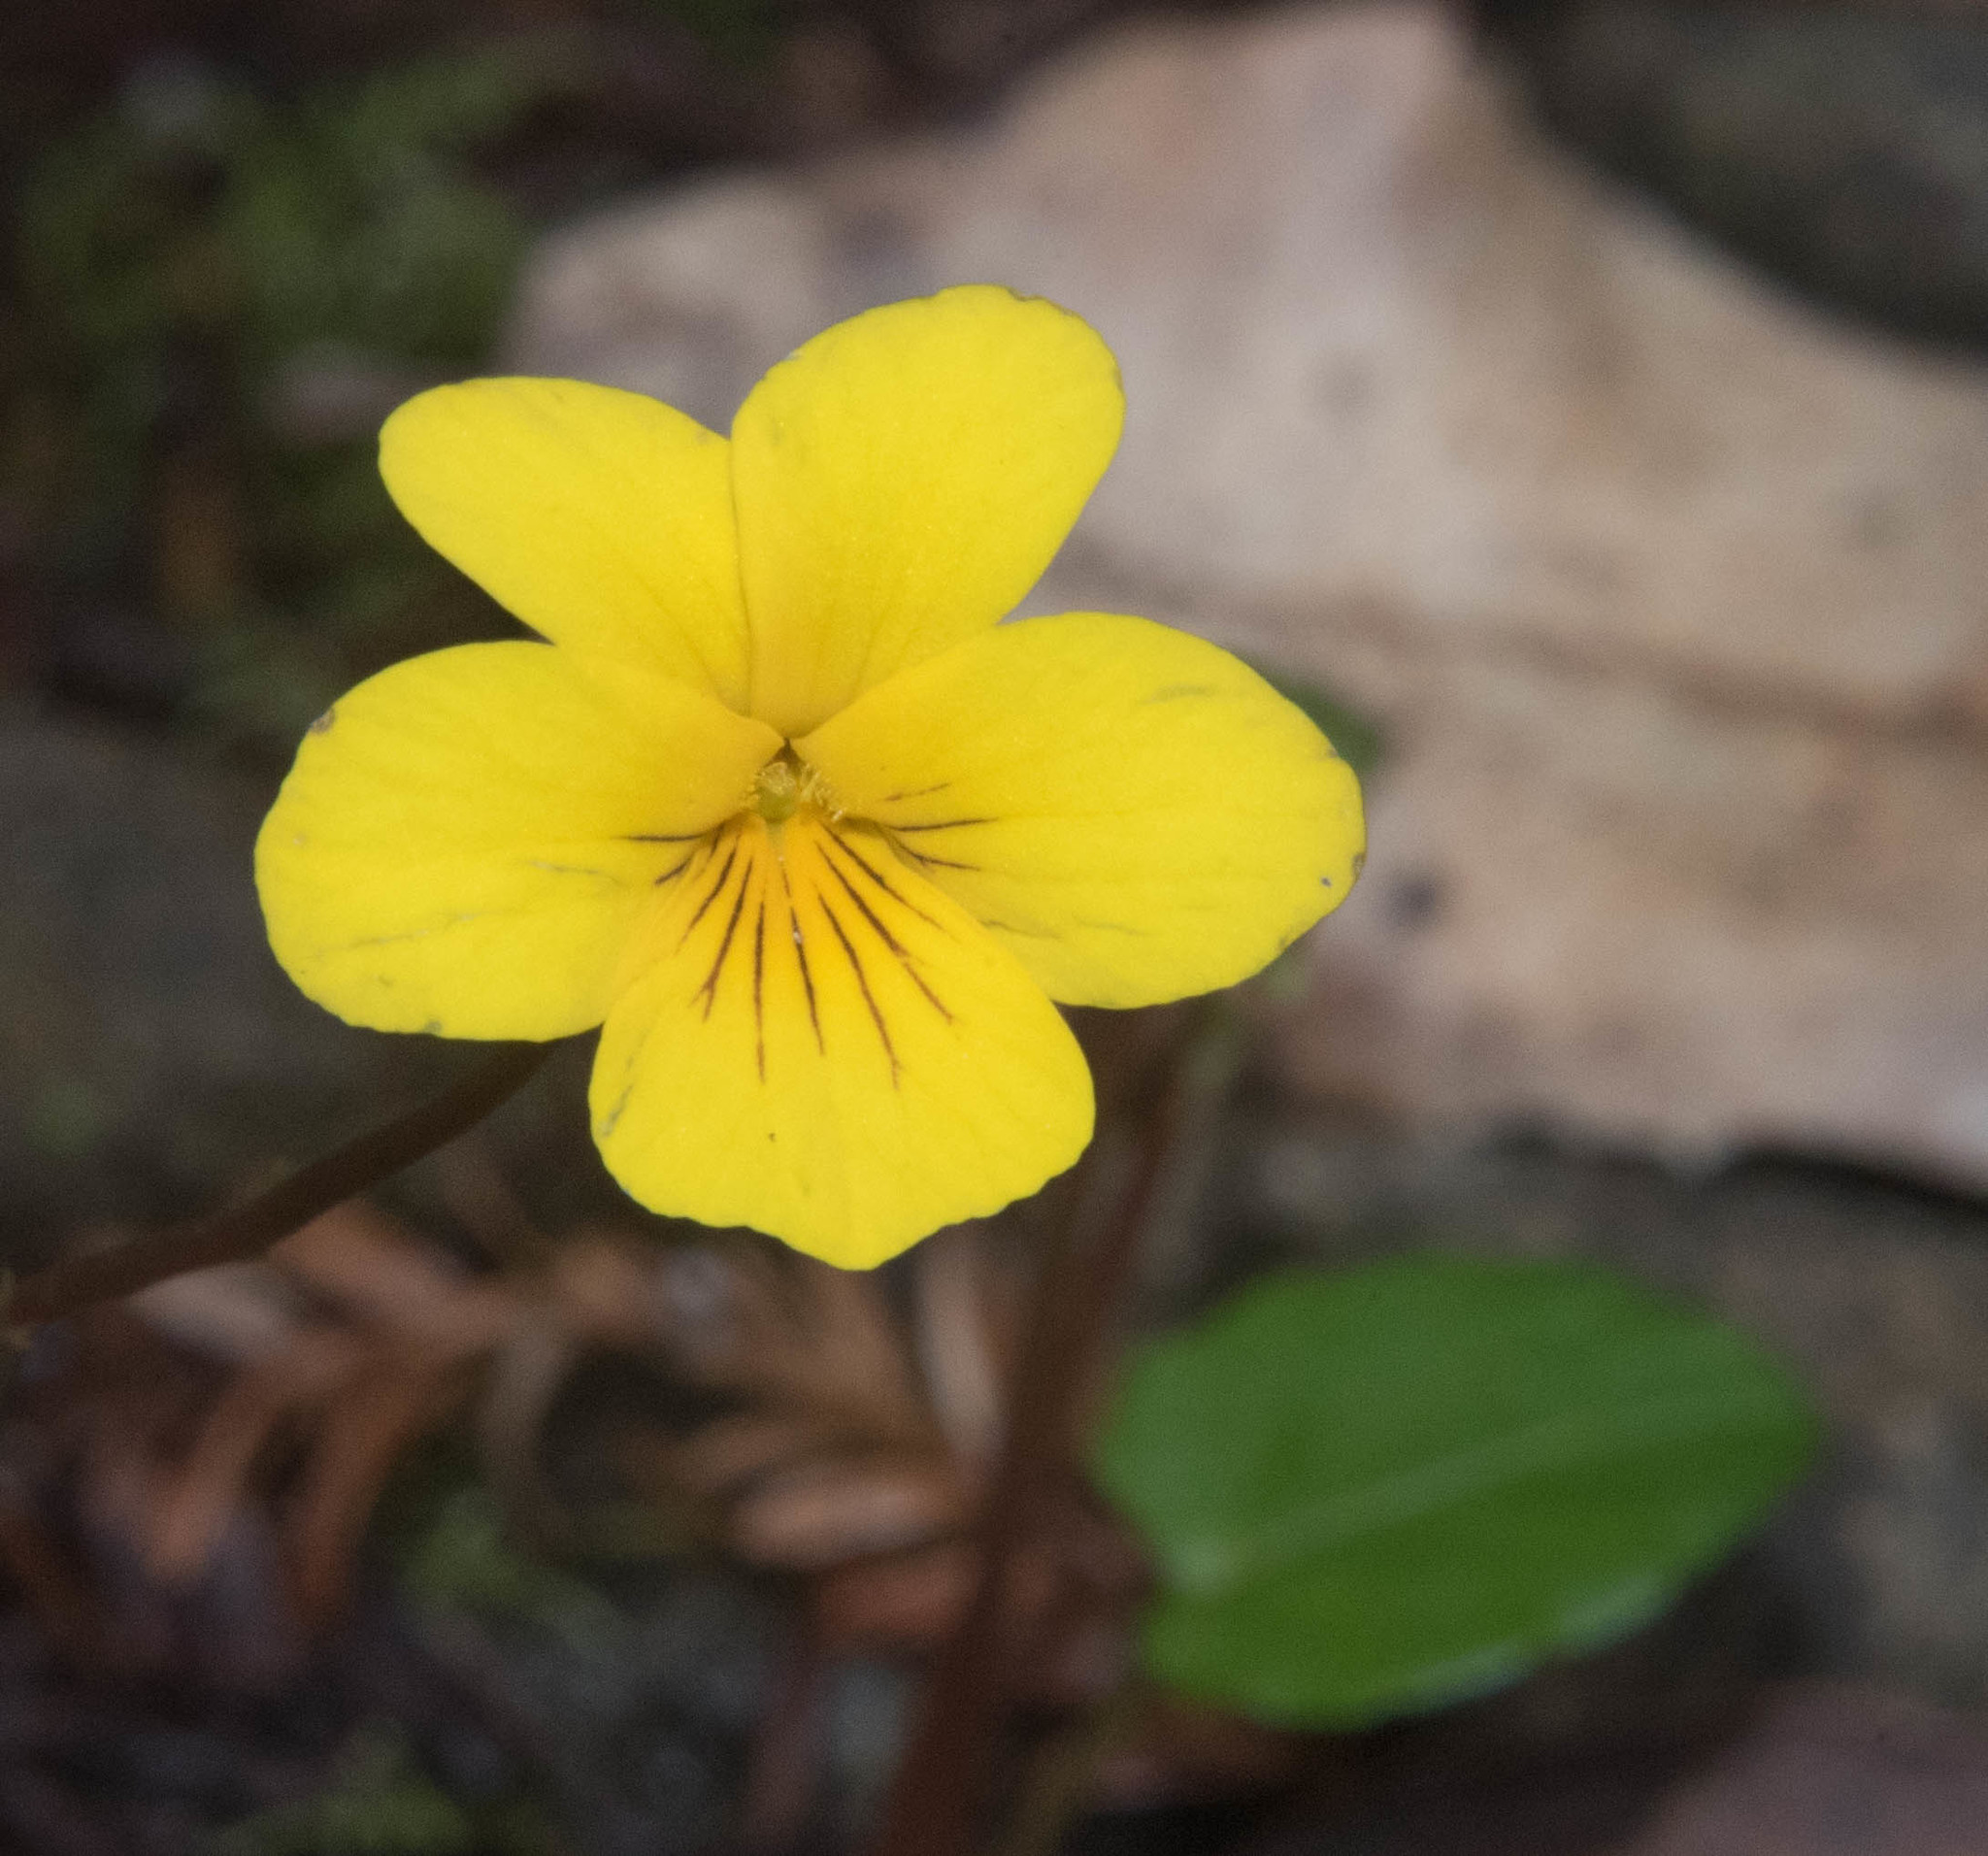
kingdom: Plantae
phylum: Tracheophyta
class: Magnoliopsida
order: Malpighiales
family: Violaceae
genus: Viola
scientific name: Viola sempervirens
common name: Evergreen violet
